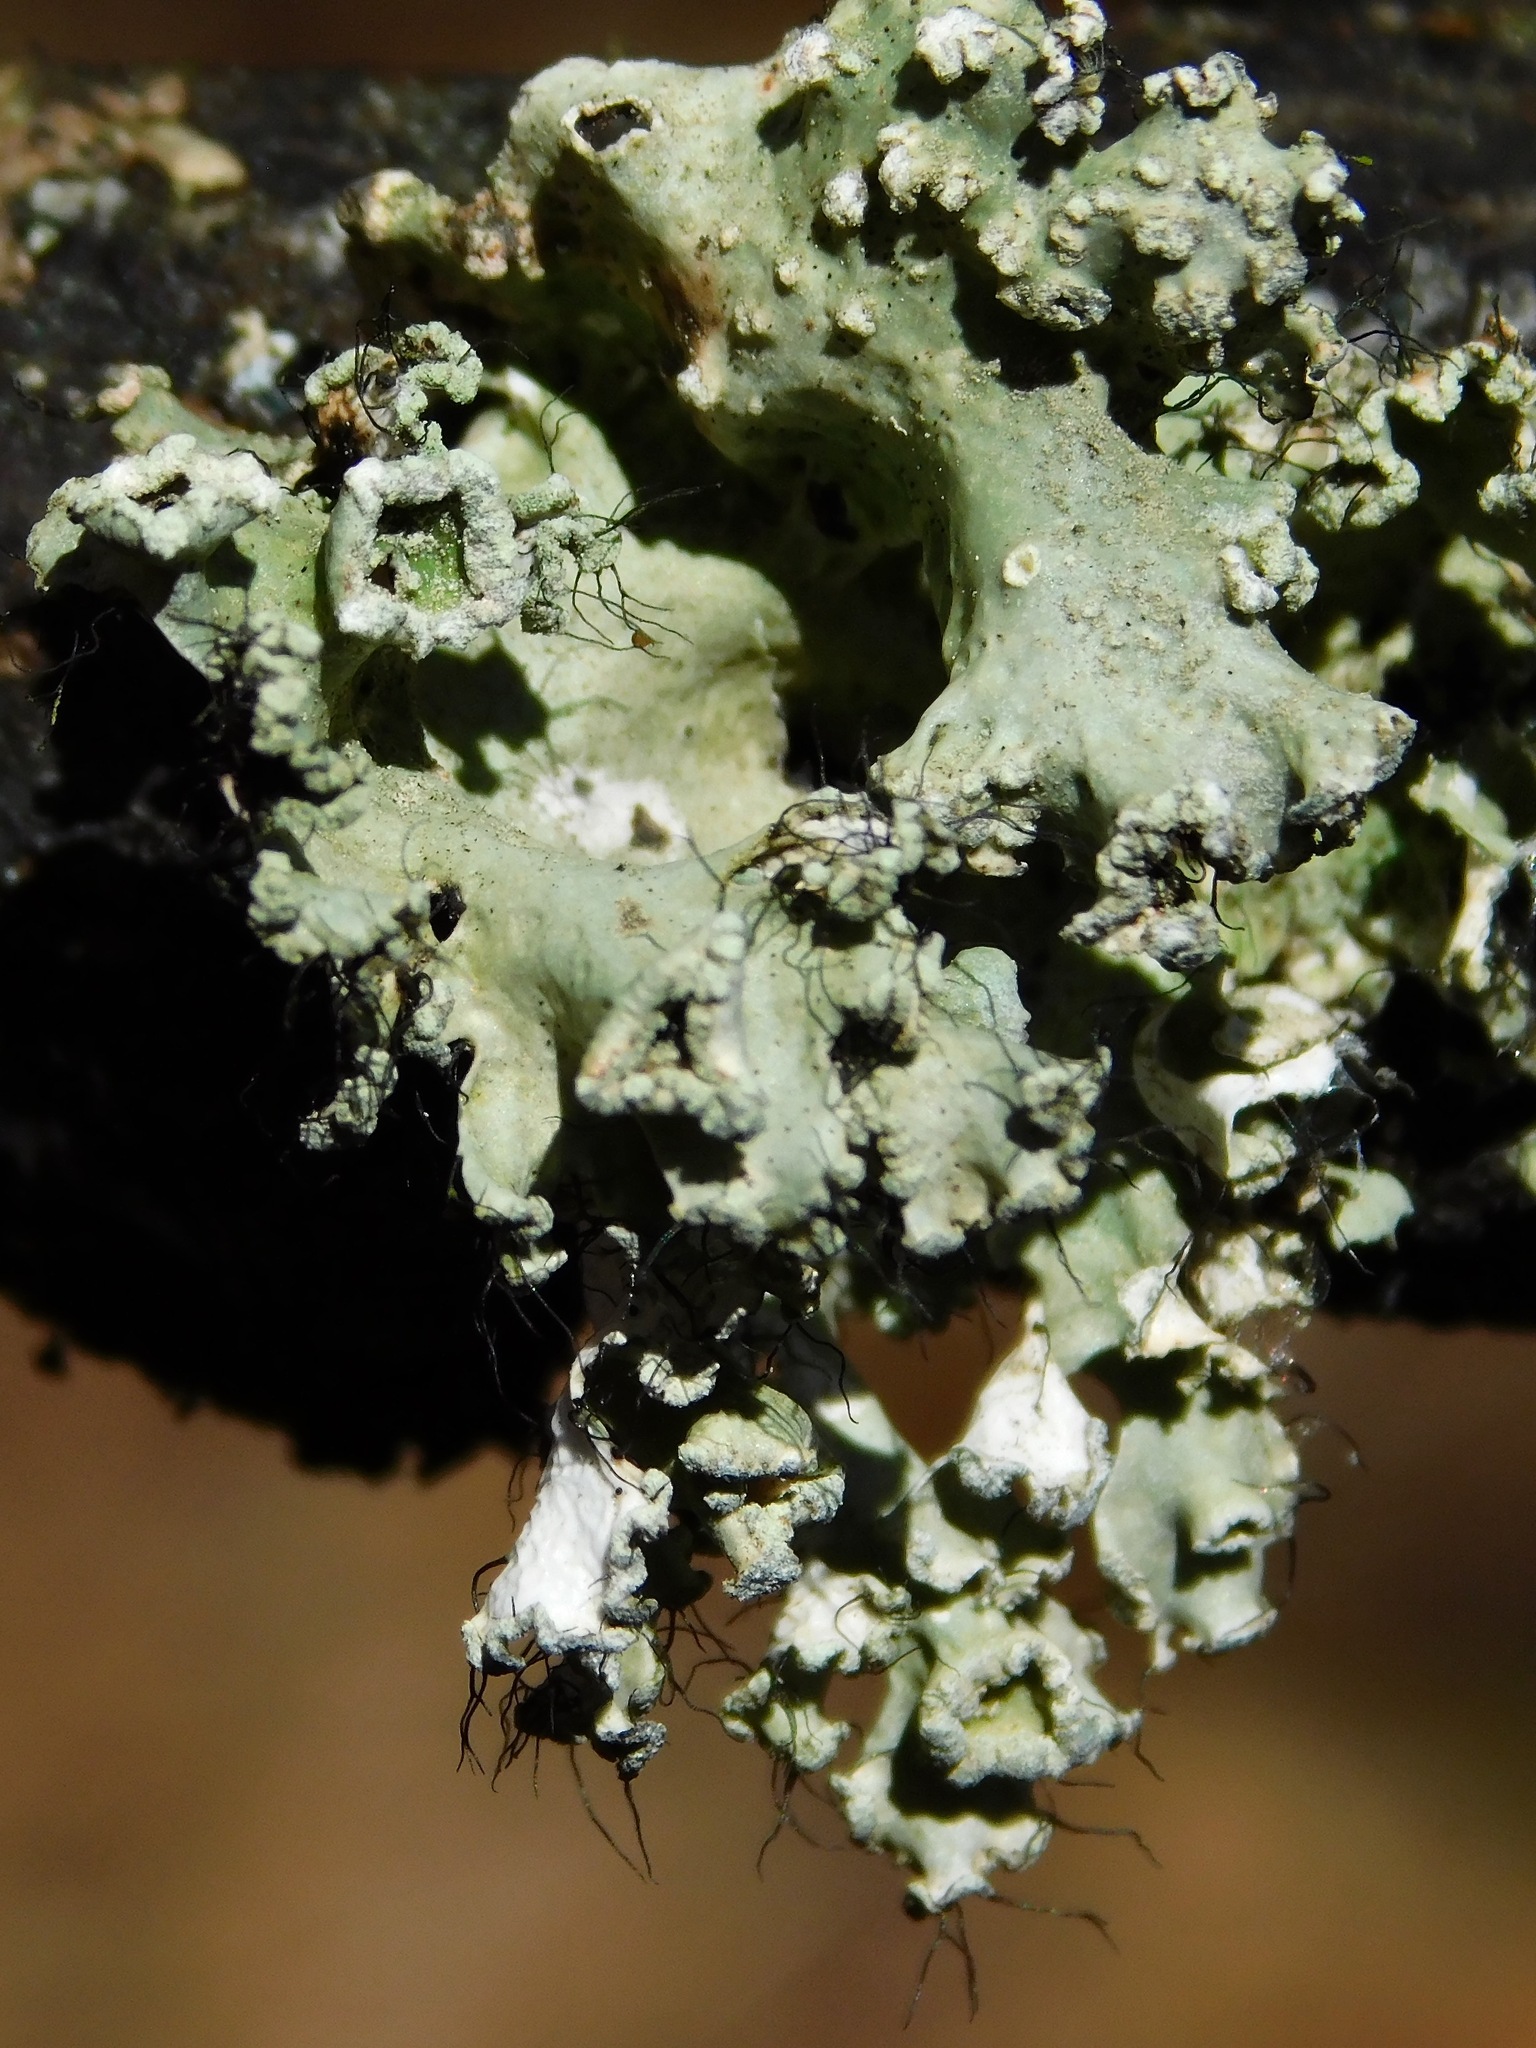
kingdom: Fungi
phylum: Ascomycota
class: Lecanoromycetes
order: Lecanorales
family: Parmeliaceae
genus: Parmotrema
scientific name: Parmotrema hypotropum
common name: Powdered ruffle lichen
